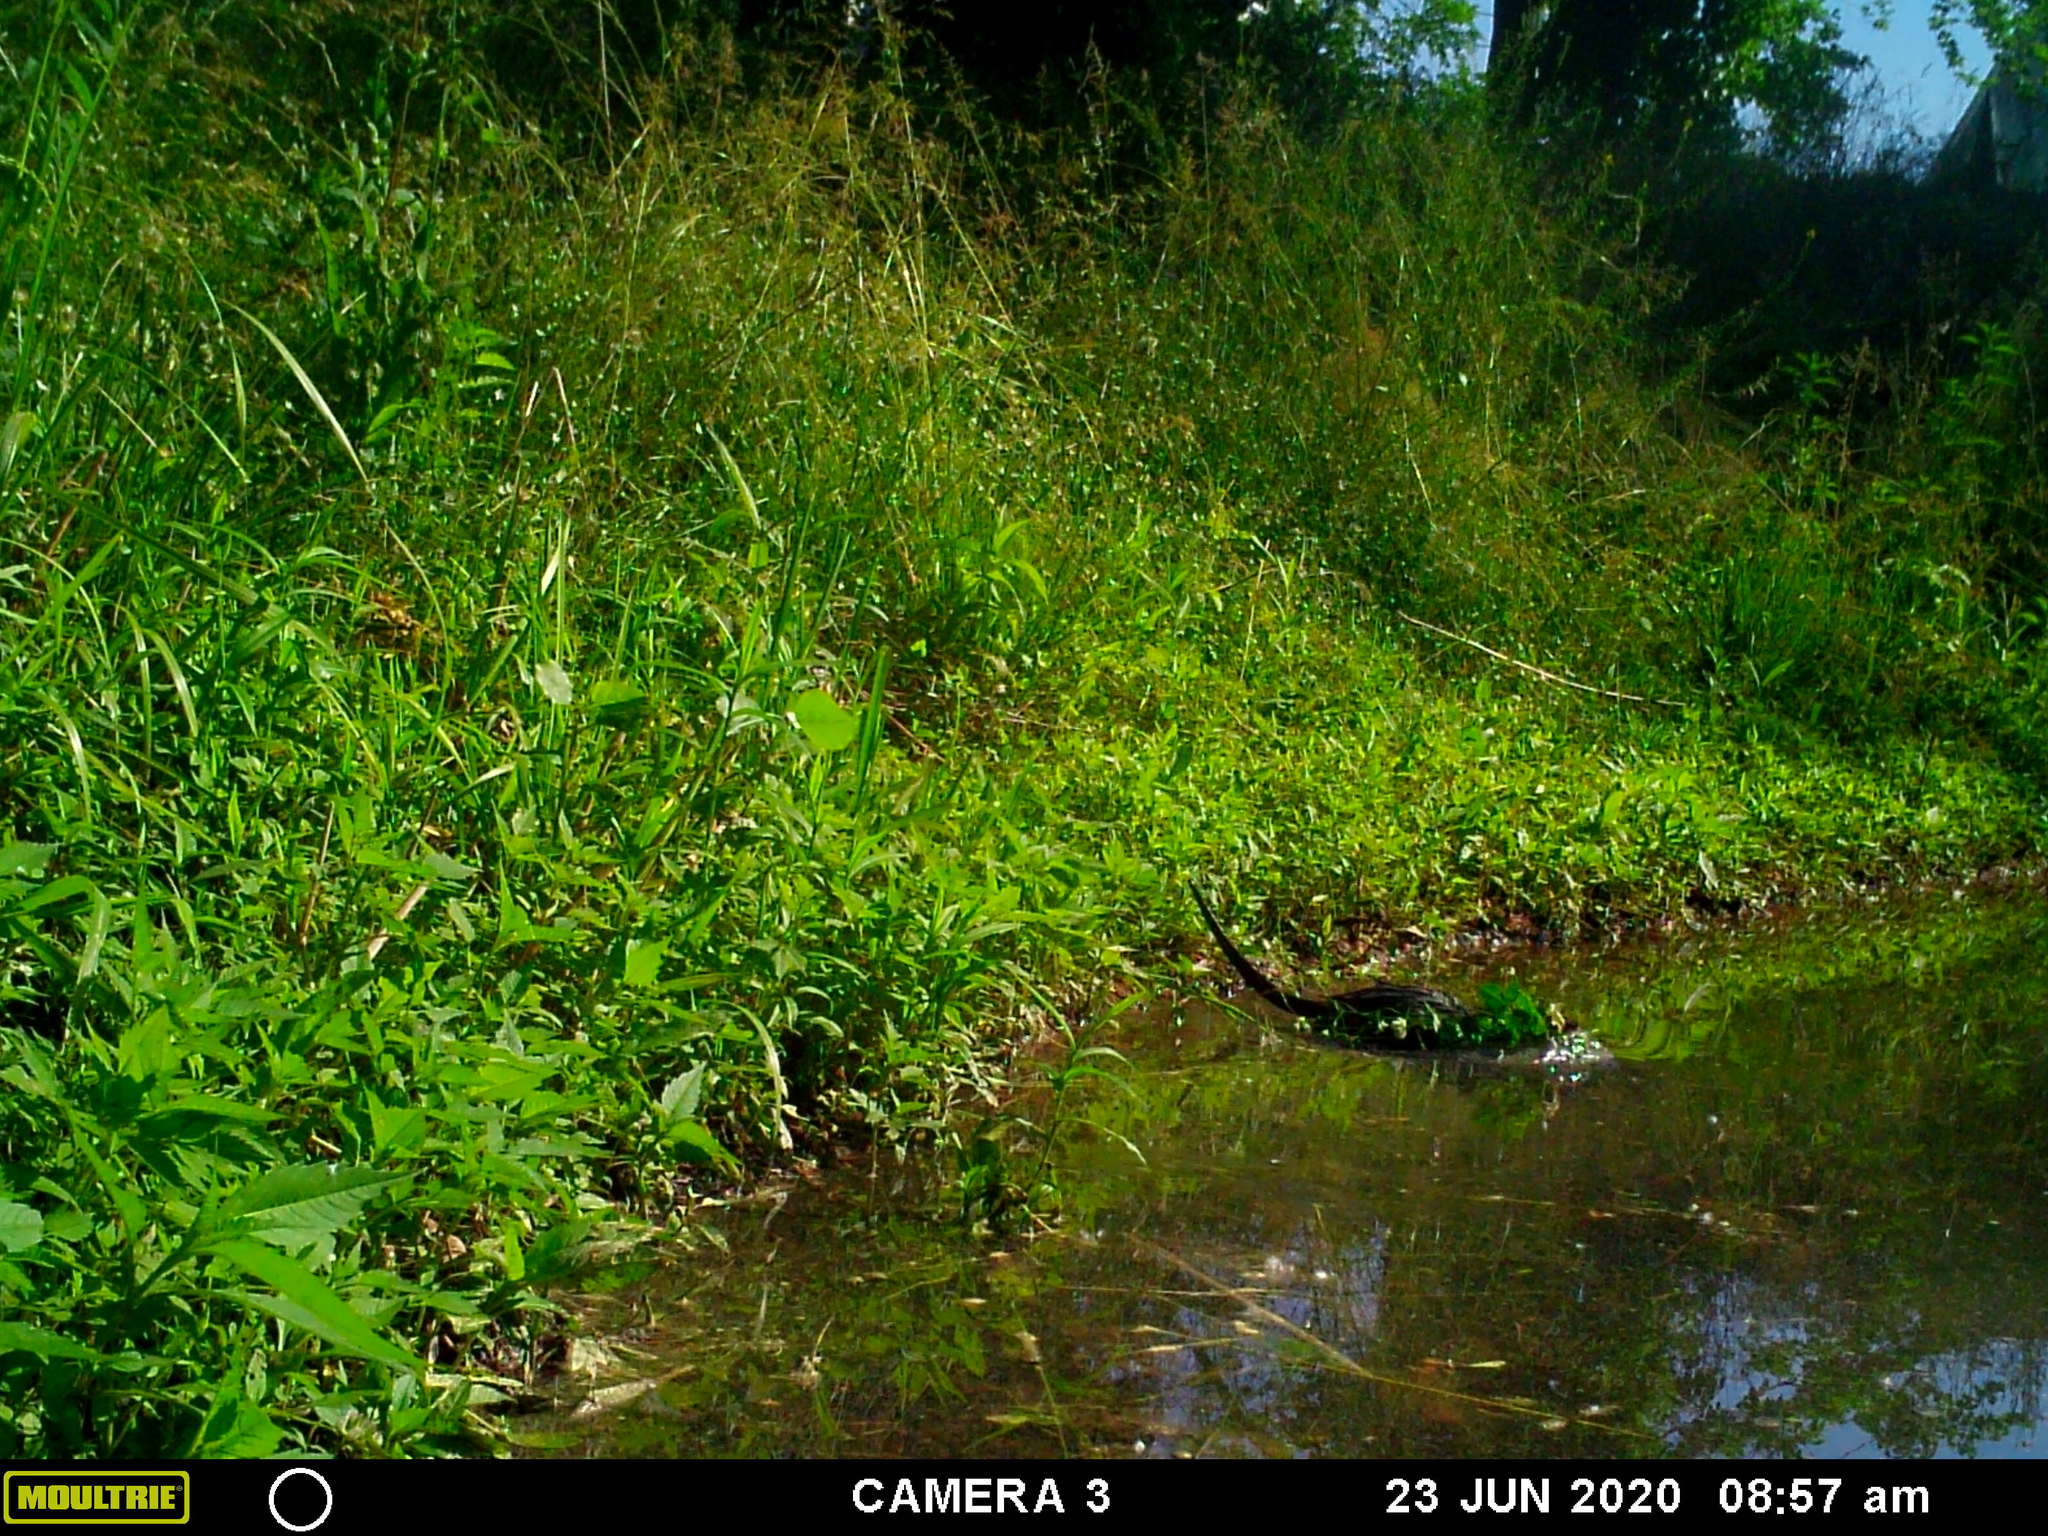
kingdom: Animalia
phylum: Chordata
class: Mammalia
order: Rodentia
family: Cricetidae
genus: Ondatra
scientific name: Ondatra zibethicus
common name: Muskrat
